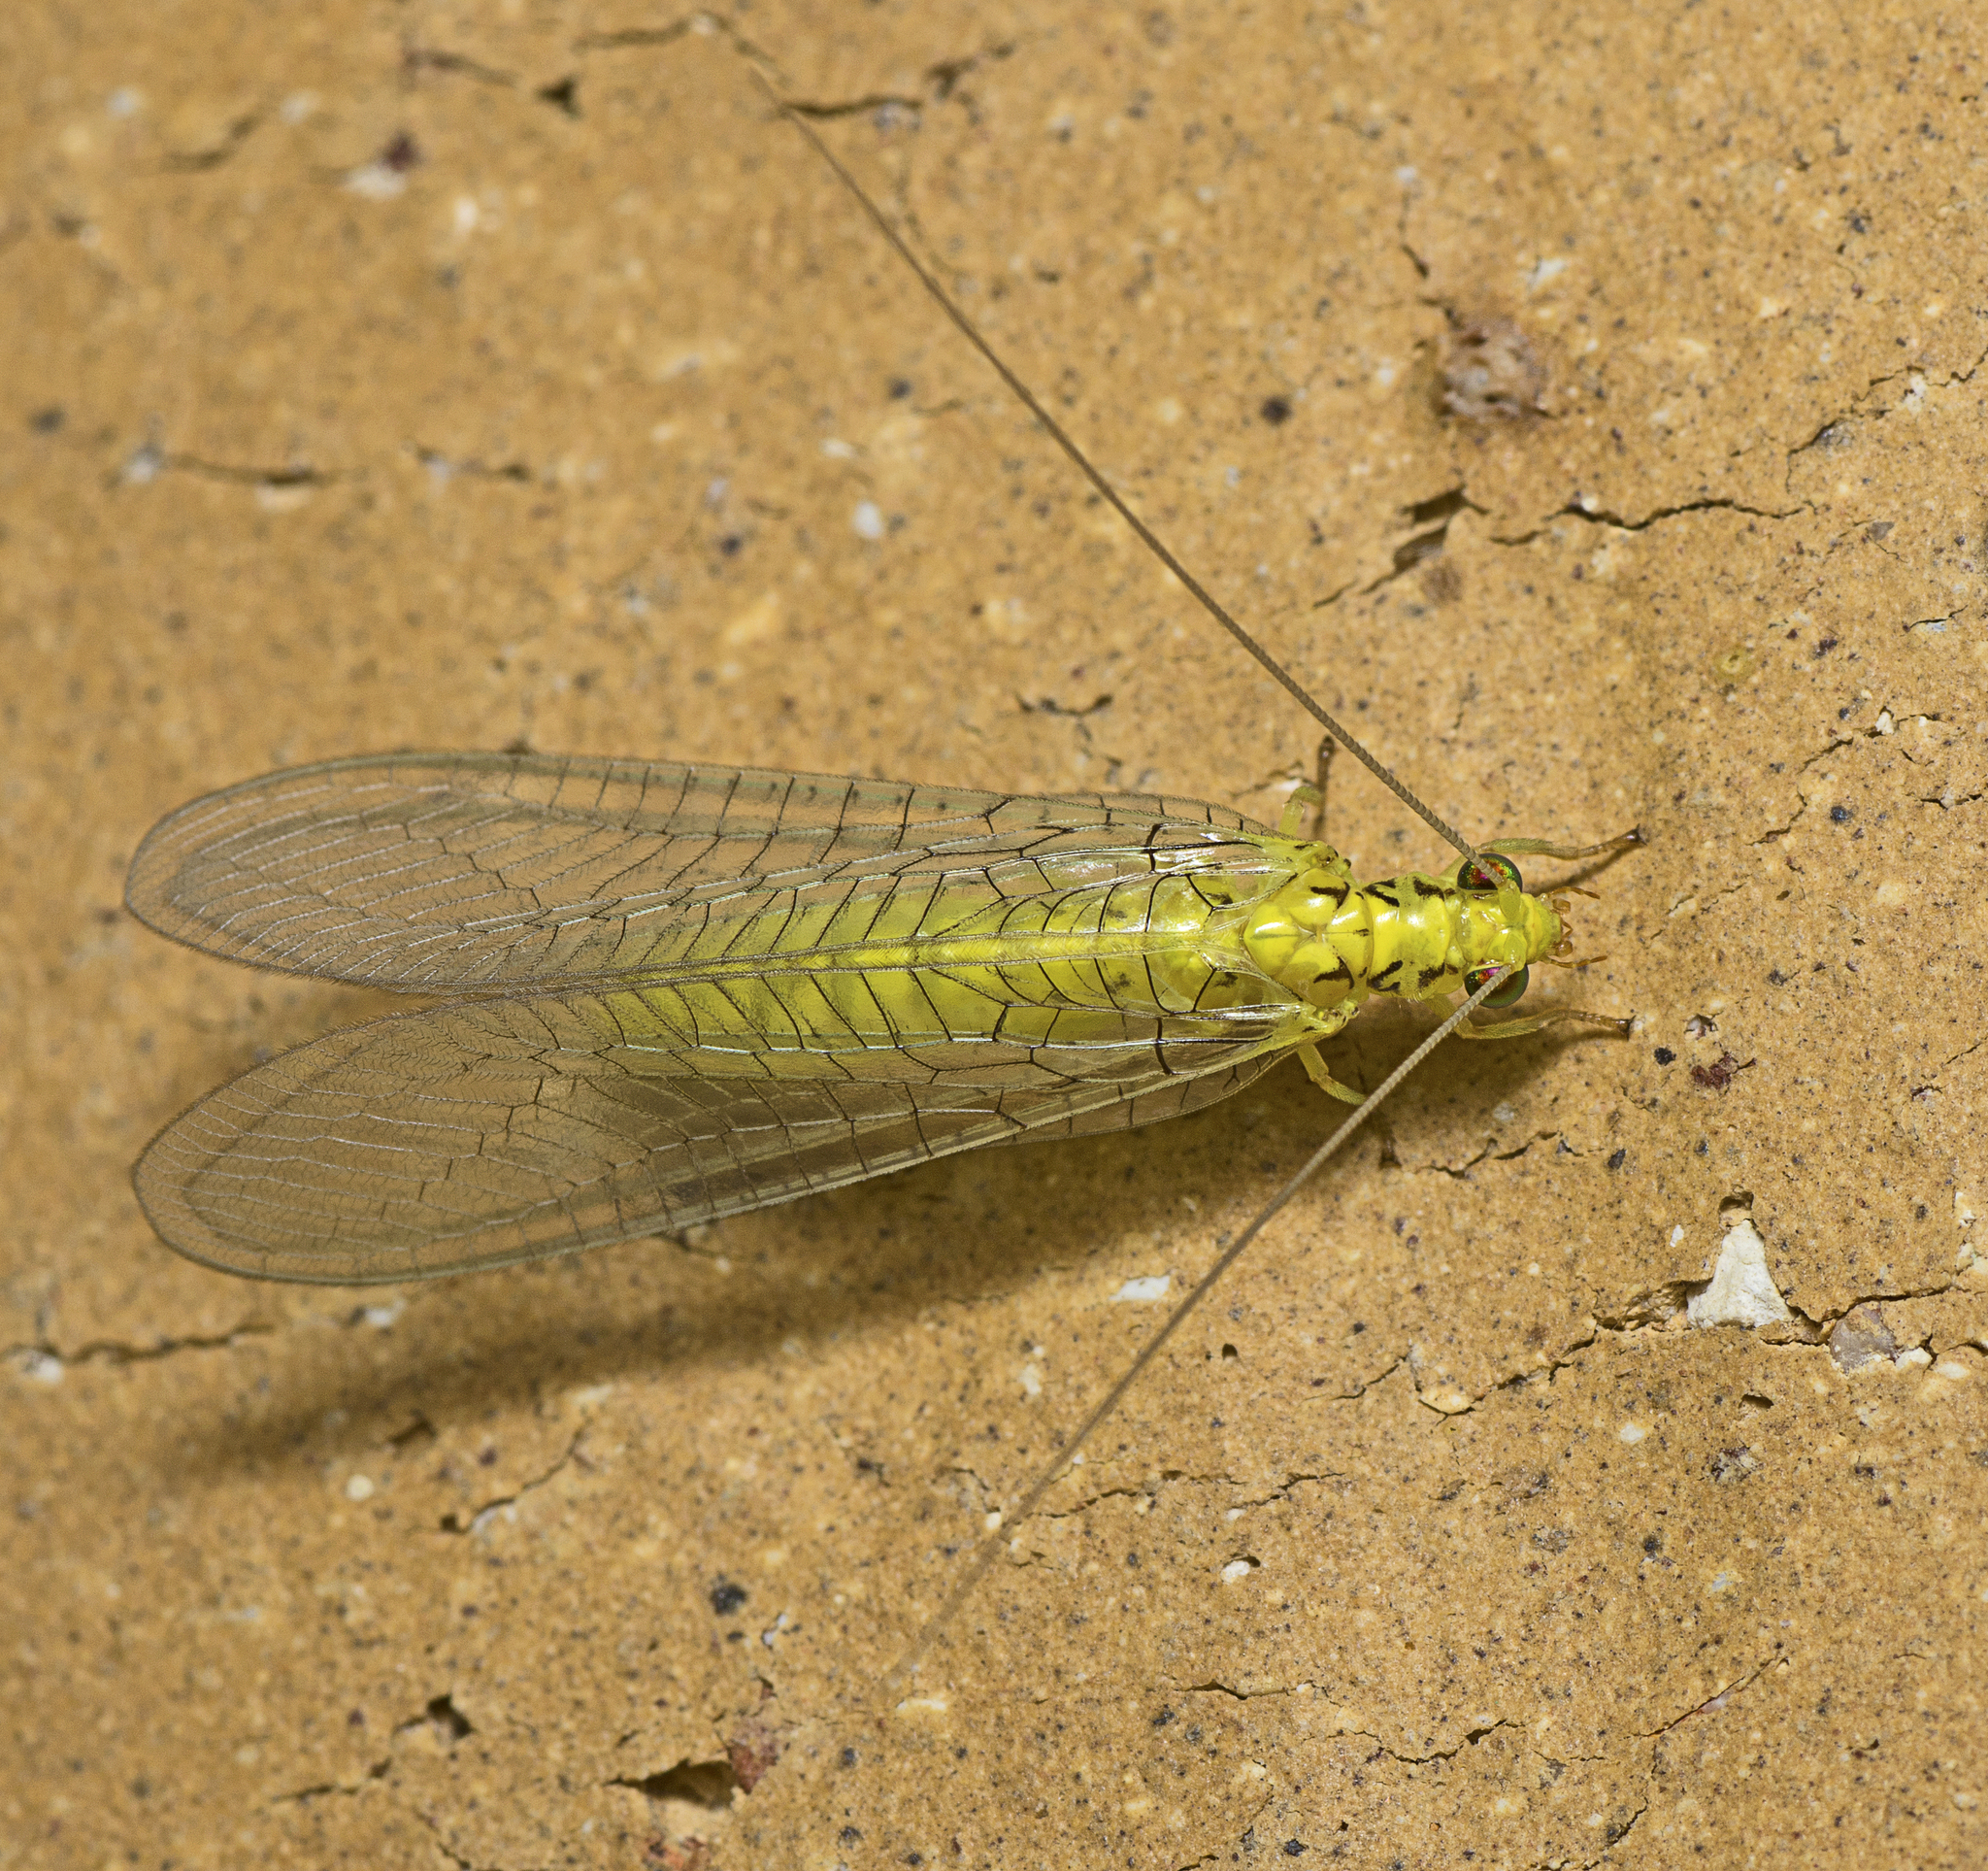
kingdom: Animalia
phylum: Arthropoda
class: Insecta
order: Neuroptera
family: Chrysopidae
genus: Italochrysa
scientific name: Italochrysa insignis
